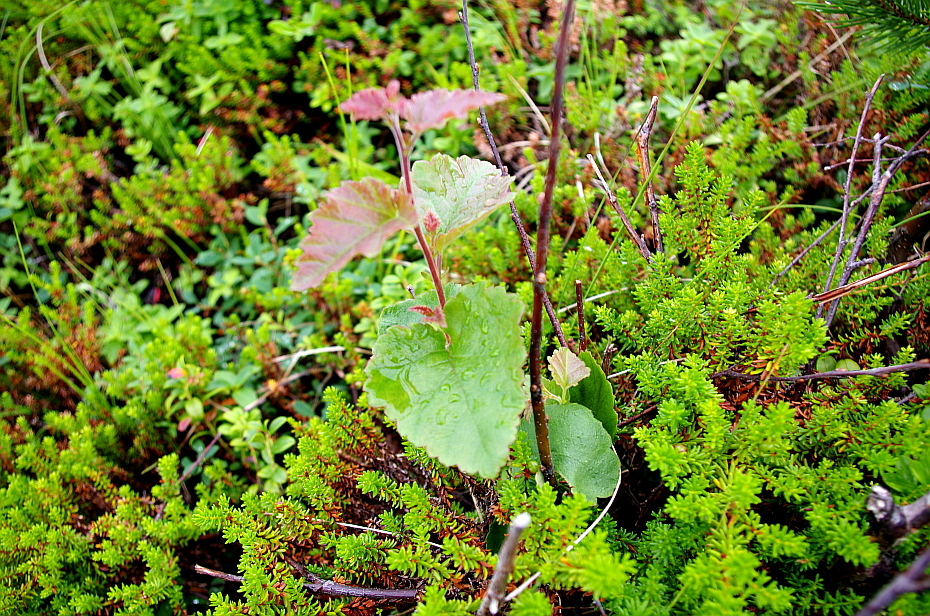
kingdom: Plantae
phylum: Tracheophyta
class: Magnoliopsida
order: Fagales
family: Betulaceae
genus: Betula
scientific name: Betula pubescens
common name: Downy birch
